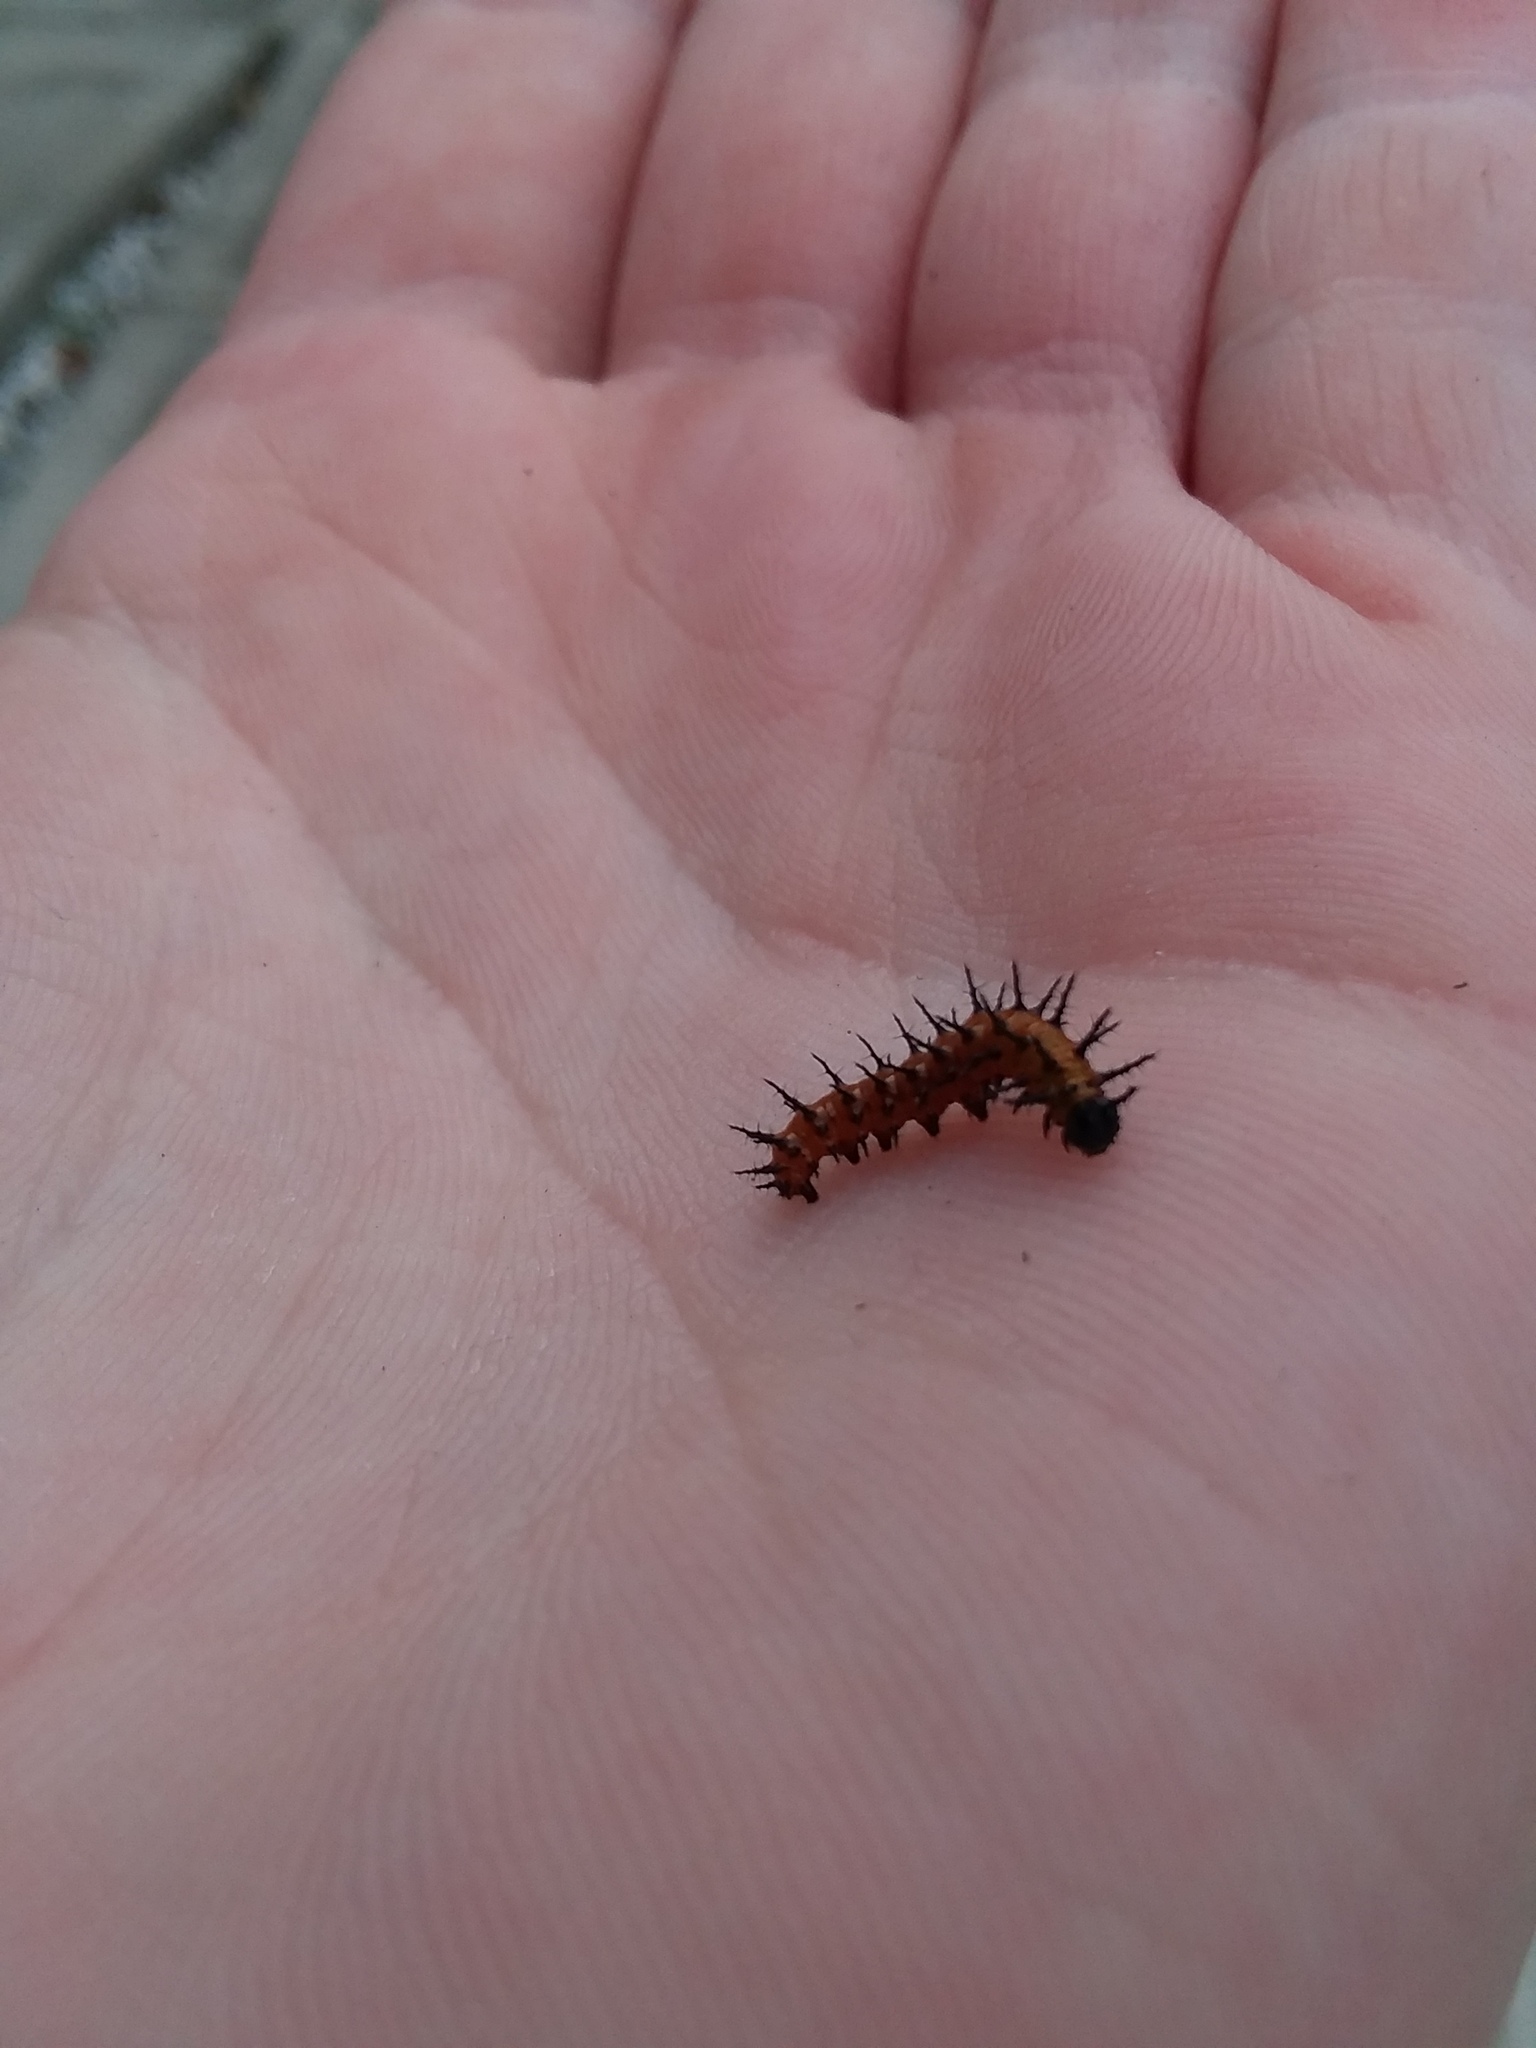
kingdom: Animalia
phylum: Arthropoda
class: Insecta
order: Lepidoptera
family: Nymphalidae
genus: Dione
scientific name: Dione vanillae
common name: Gulf fritillary
